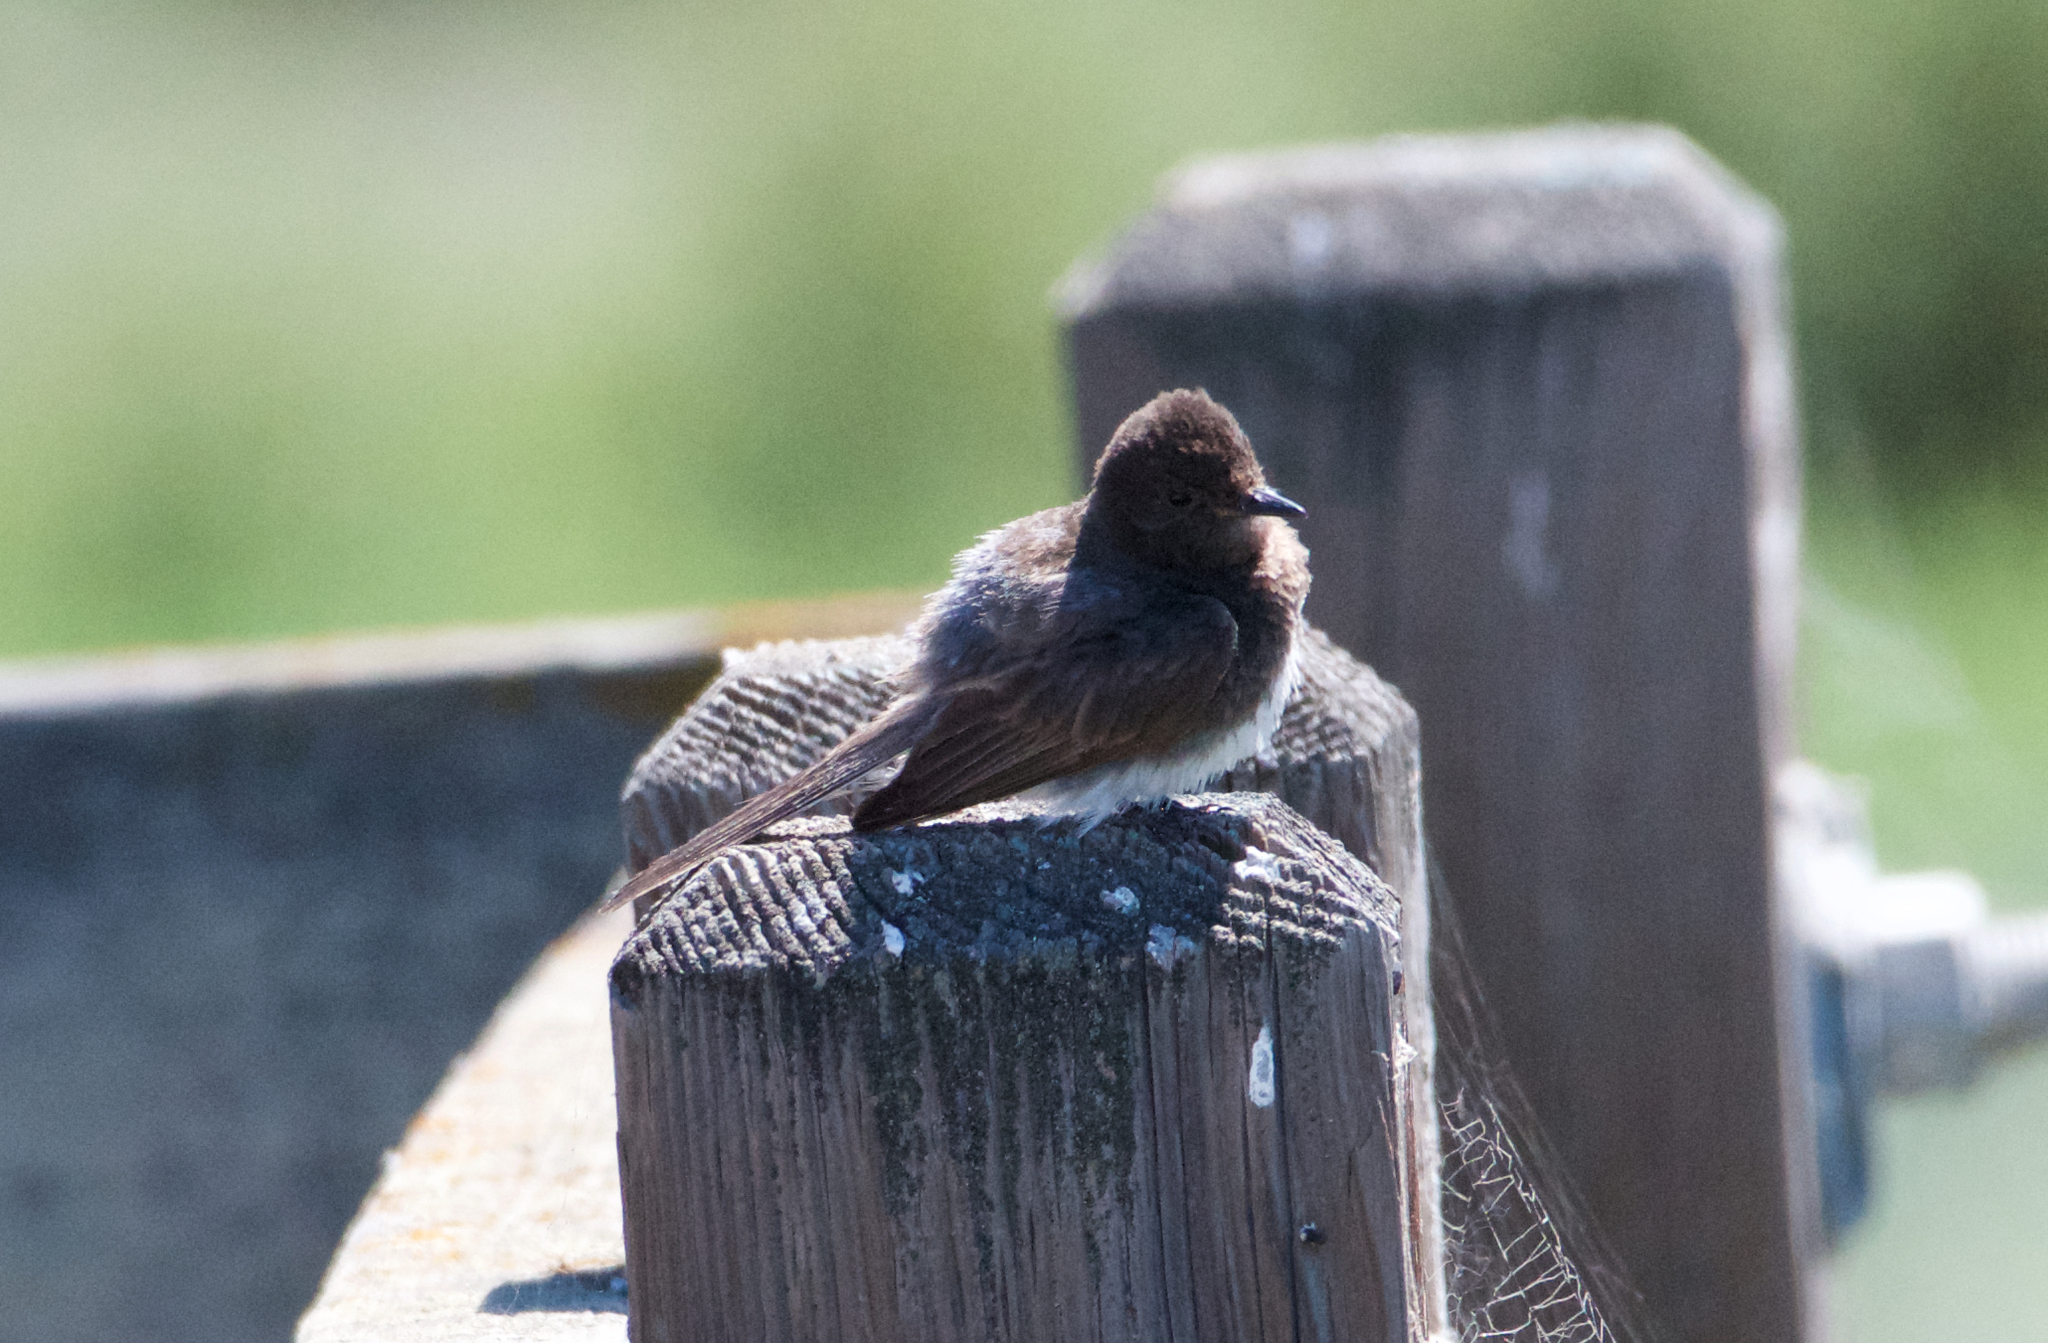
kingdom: Animalia
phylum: Chordata
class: Aves
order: Passeriformes
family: Tyrannidae
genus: Sayornis
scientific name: Sayornis nigricans
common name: Black phoebe
